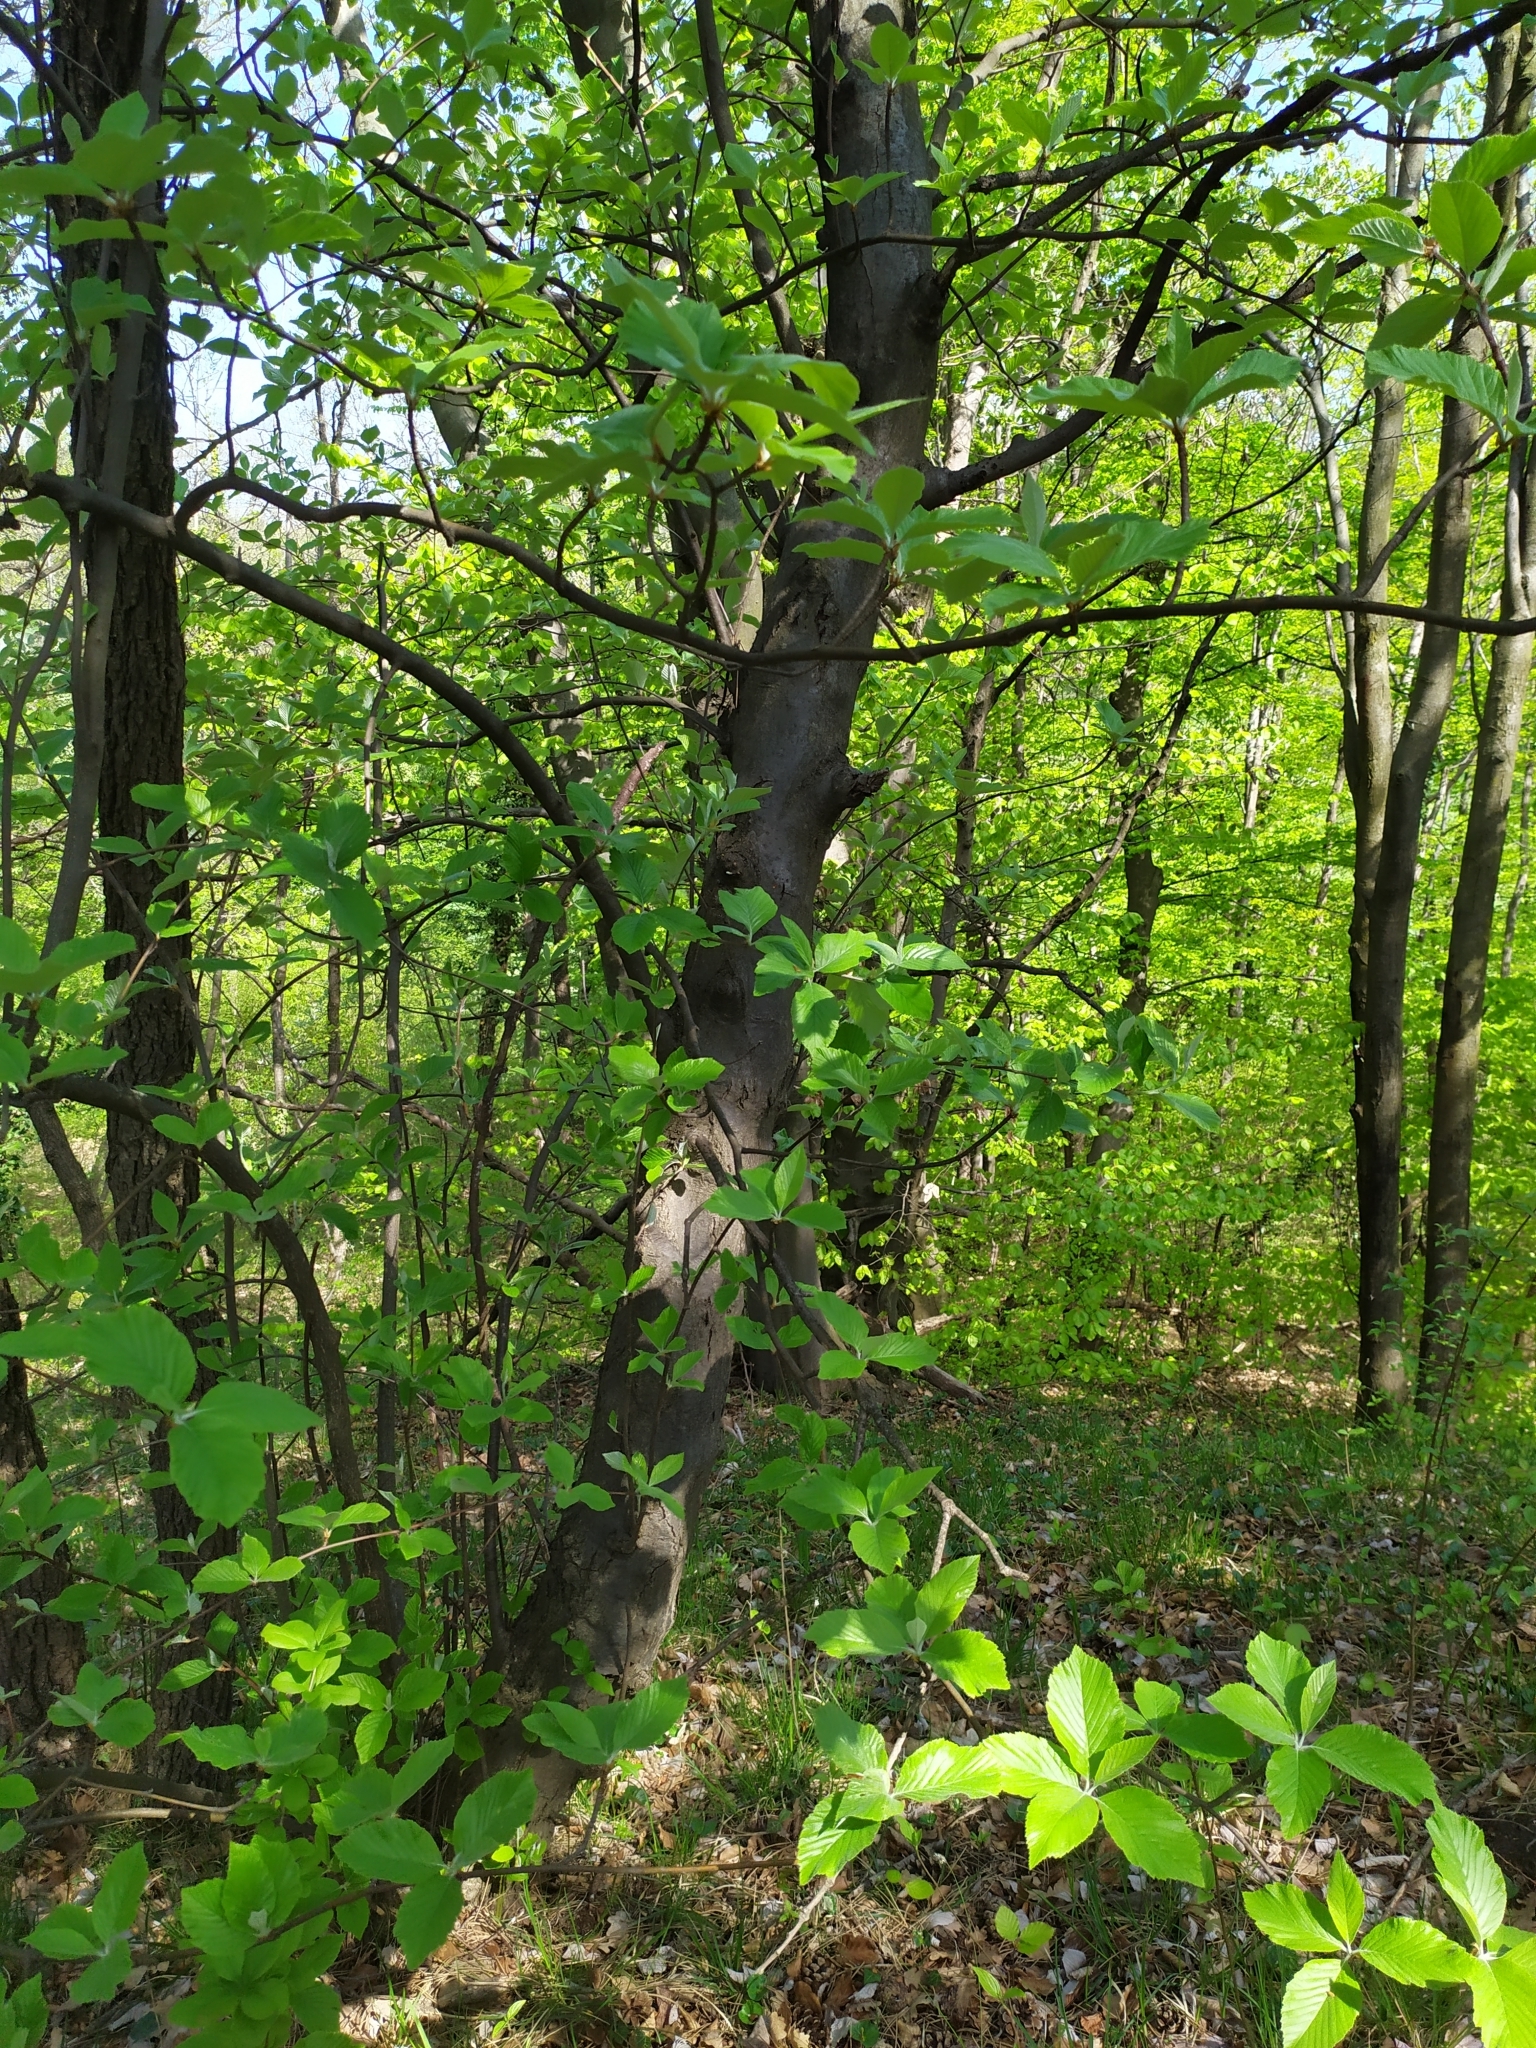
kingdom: Plantae
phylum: Tracheophyta
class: Magnoliopsida
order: Rosales
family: Rosaceae
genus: Aria
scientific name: Aria edulis
